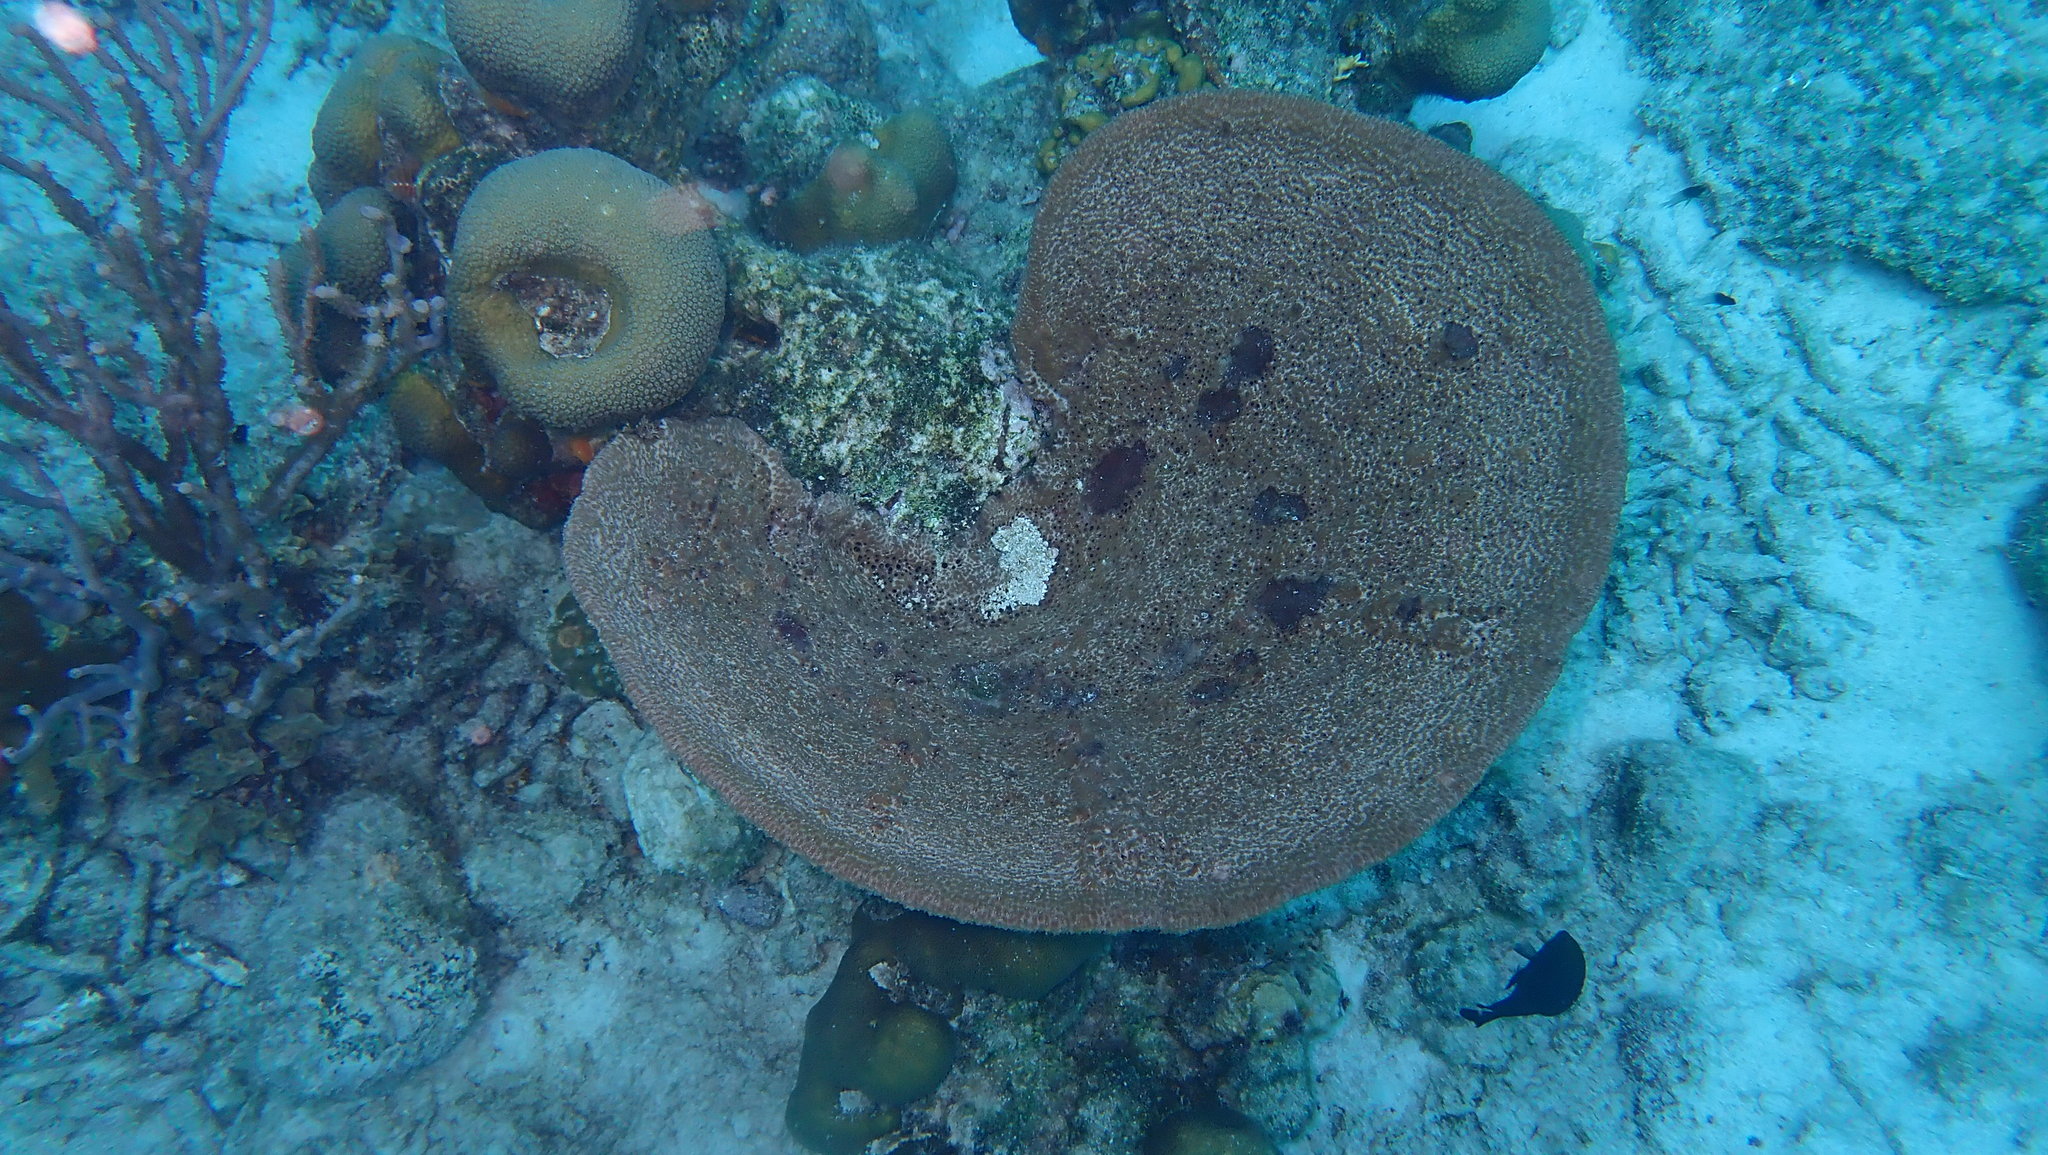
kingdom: Animalia
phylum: Porifera
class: Demospongiae
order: Dictyoceratida
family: Irciniidae
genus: Ircinia
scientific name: Ircinia campana
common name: Vase sponge
